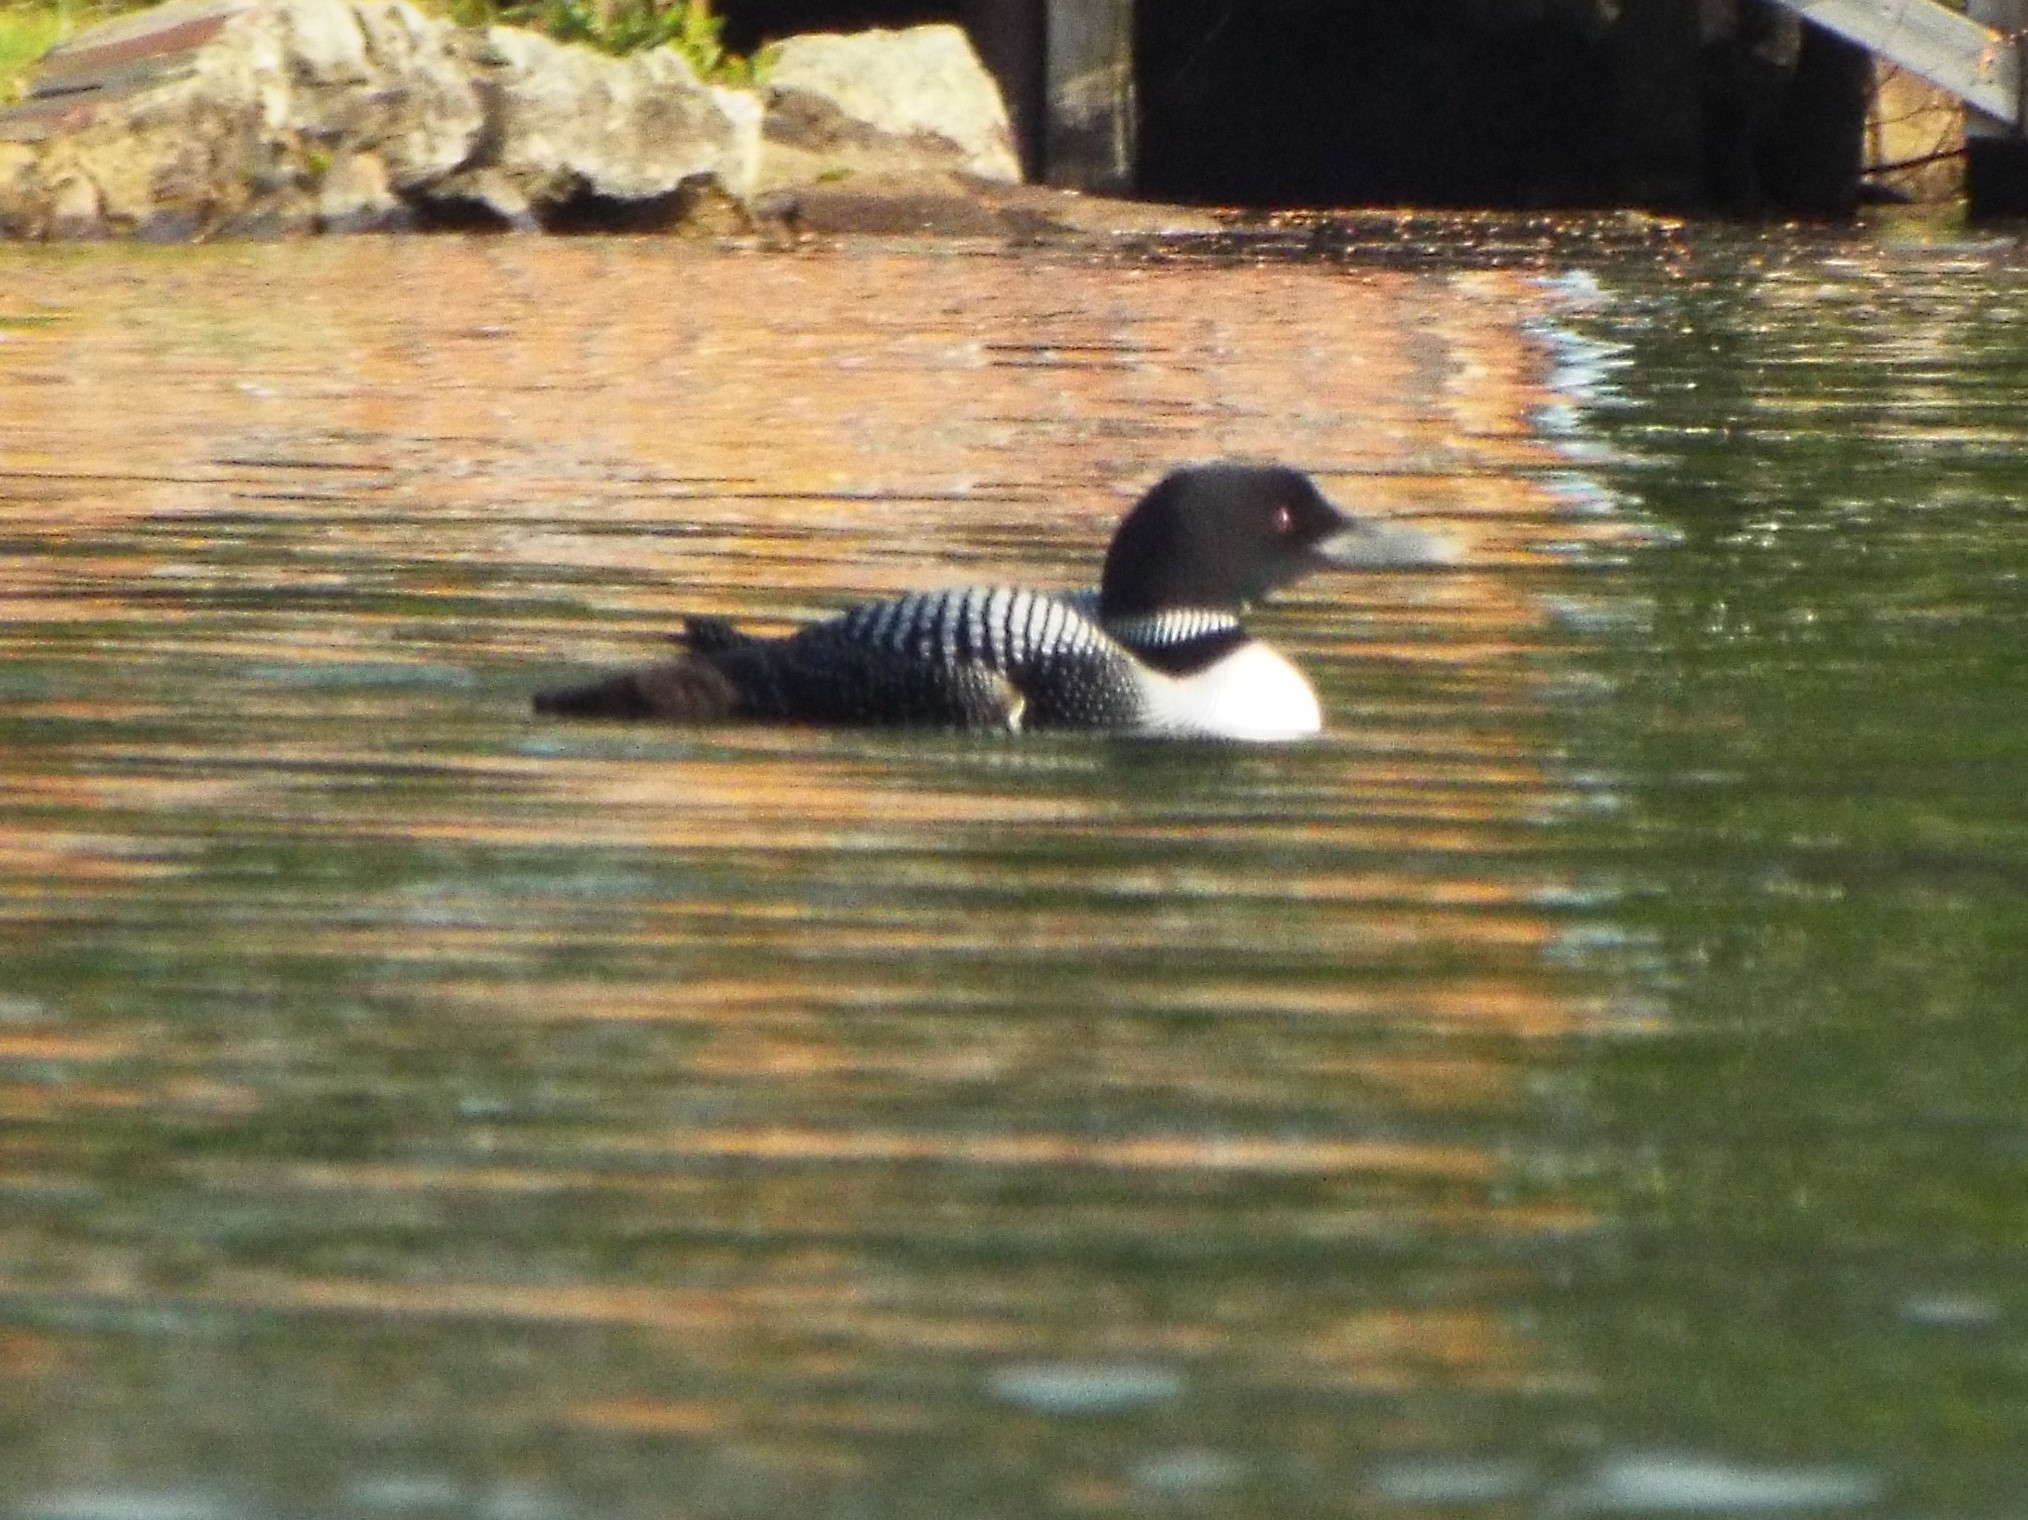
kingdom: Animalia
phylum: Chordata
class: Aves
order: Gaviiformes
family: Gaviidae
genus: Gavia
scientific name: Gavia immer
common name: Common loon
